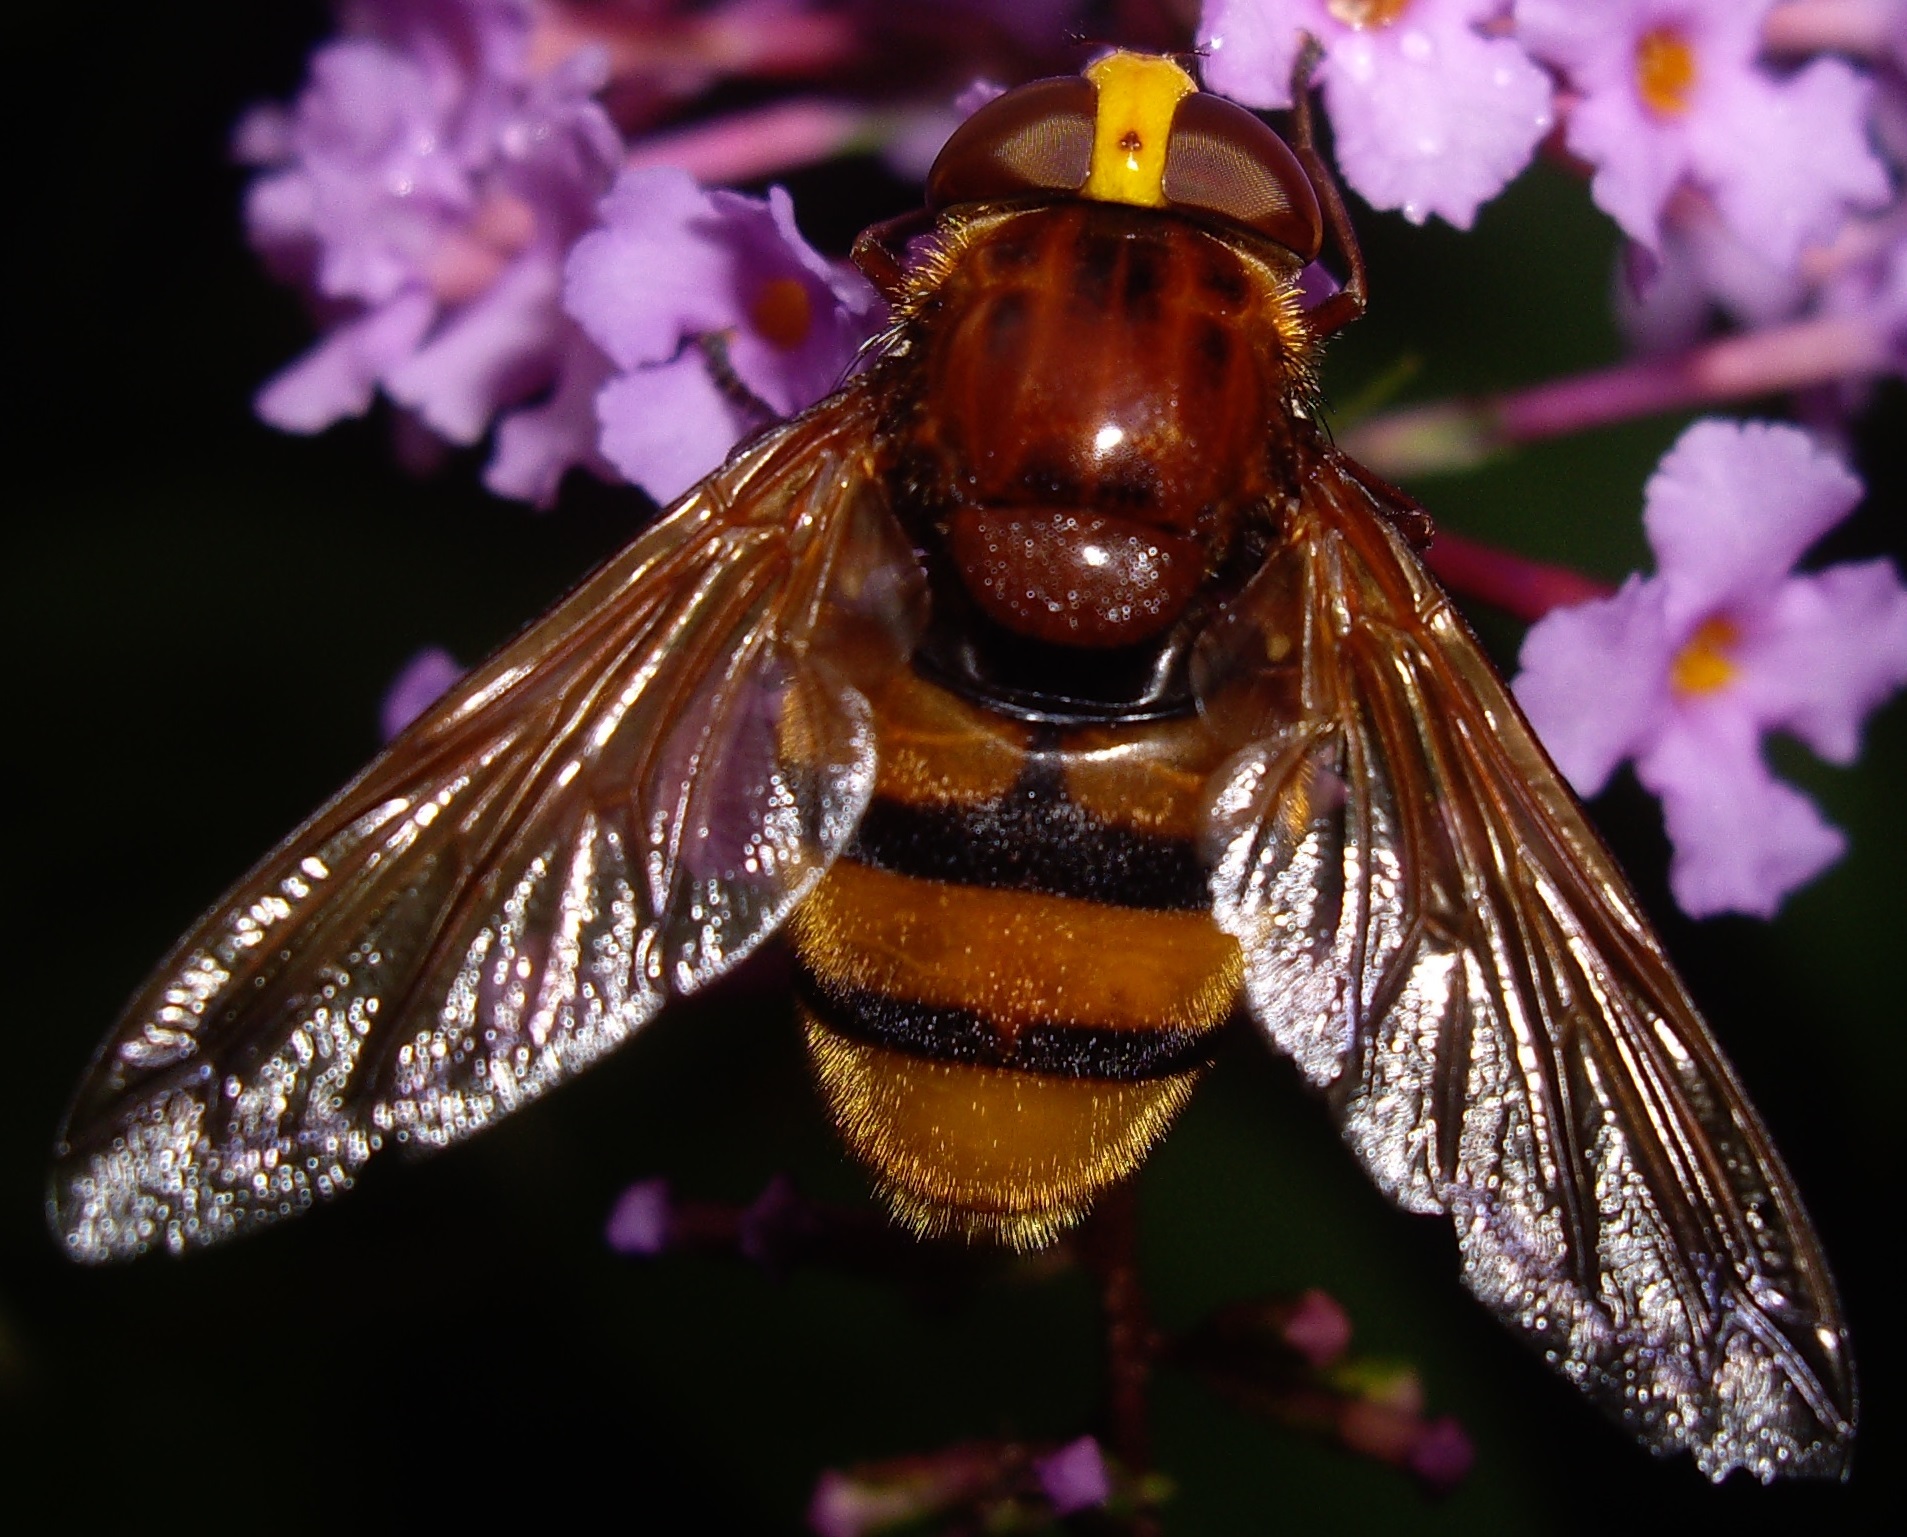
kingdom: Animalia
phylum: Arthropoda
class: Insecta
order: Diptera
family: Syrphidae
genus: Volucella
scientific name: Volucella zonaria
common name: Hornet hoverfly
